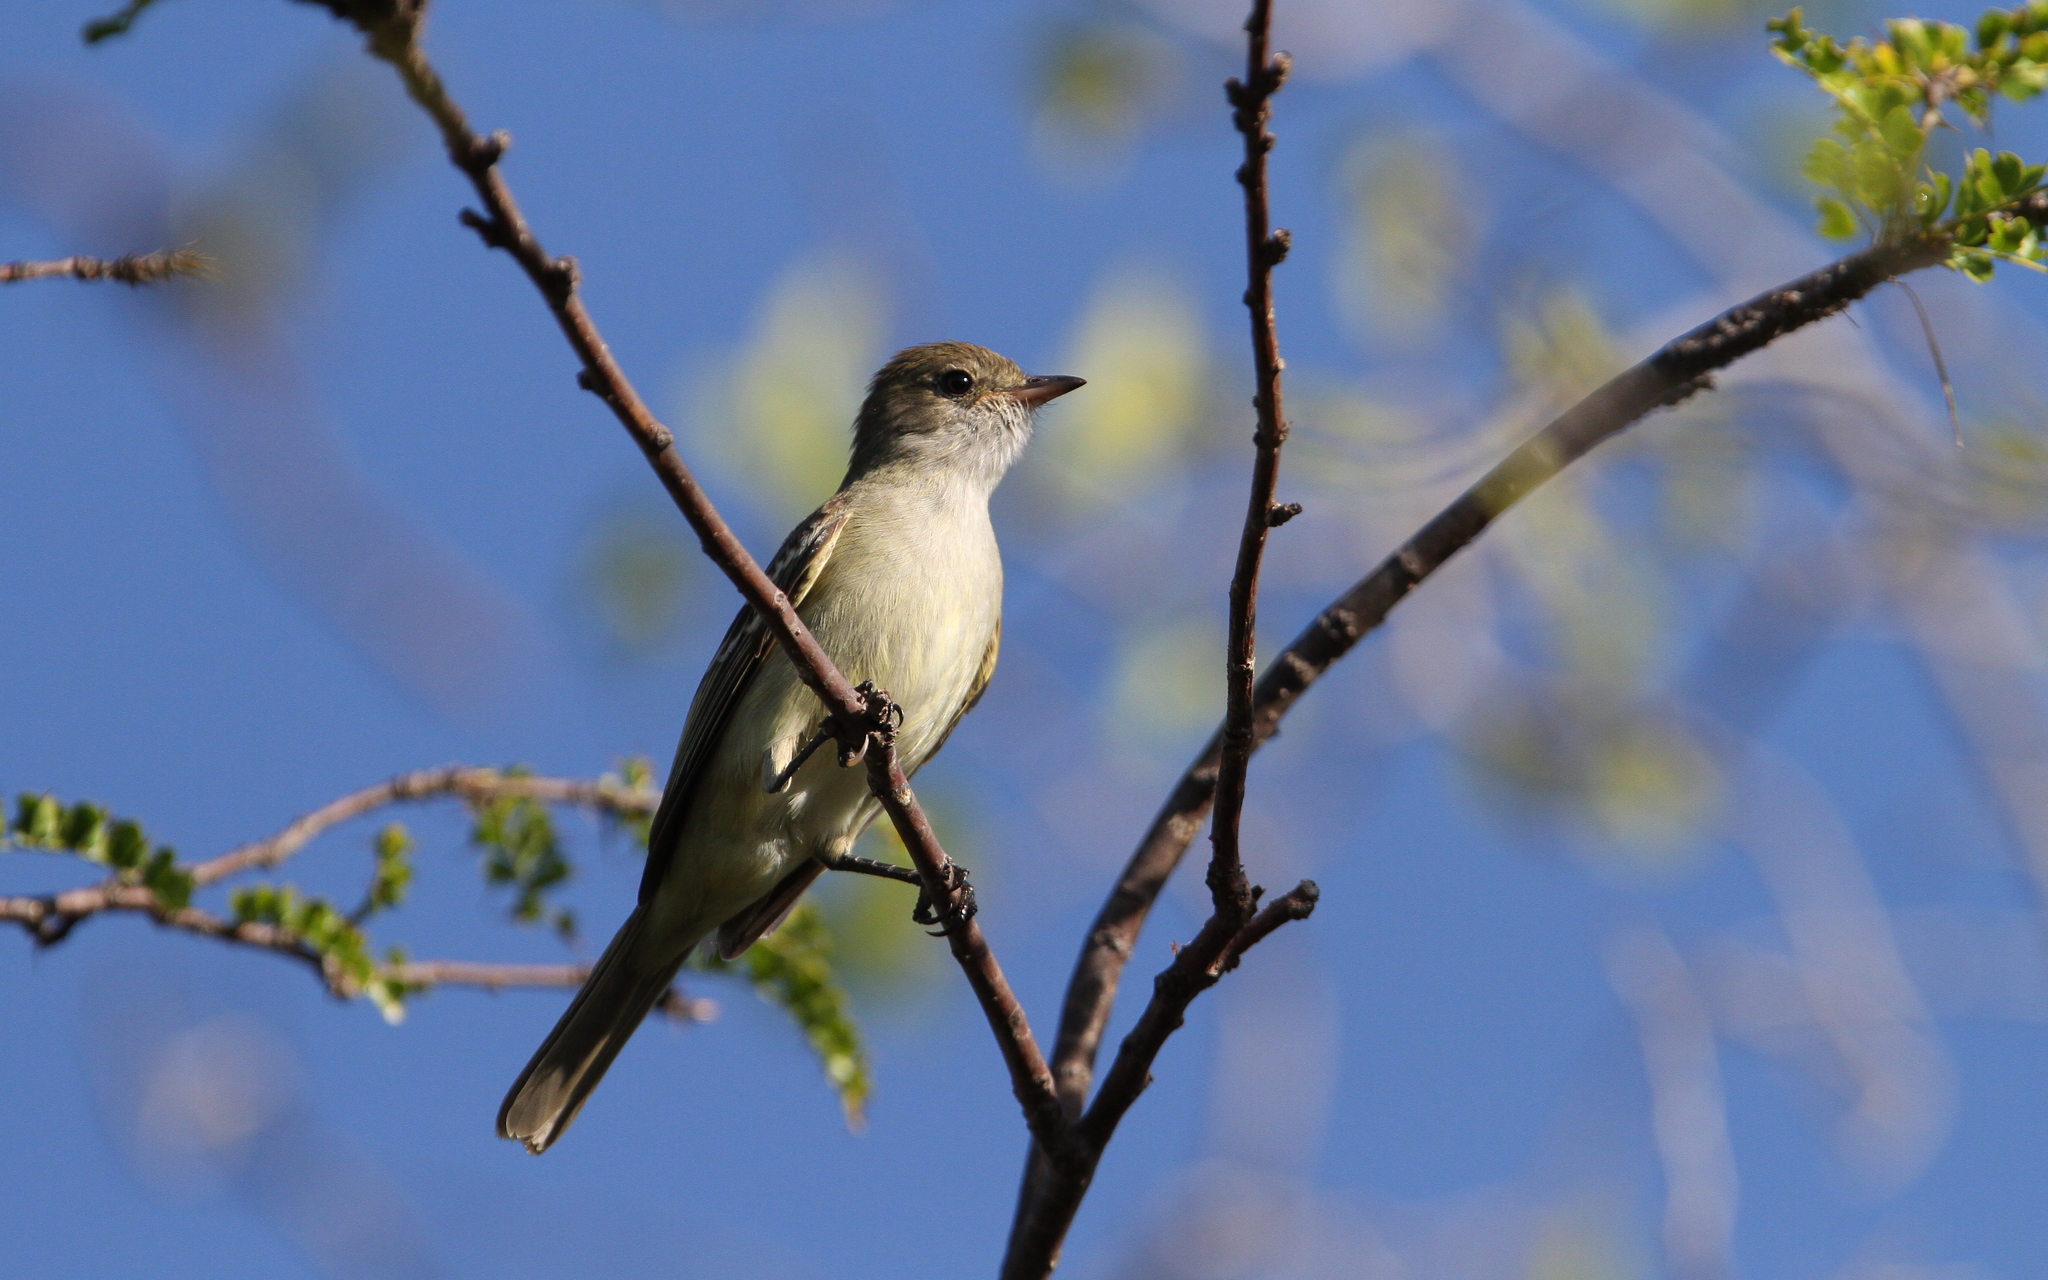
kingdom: Animalia
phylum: Chordata
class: Aves
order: Passeriformes
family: Tyrannidae
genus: Elaenia
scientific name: Elaenia martinica
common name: Caribbean elaenia
